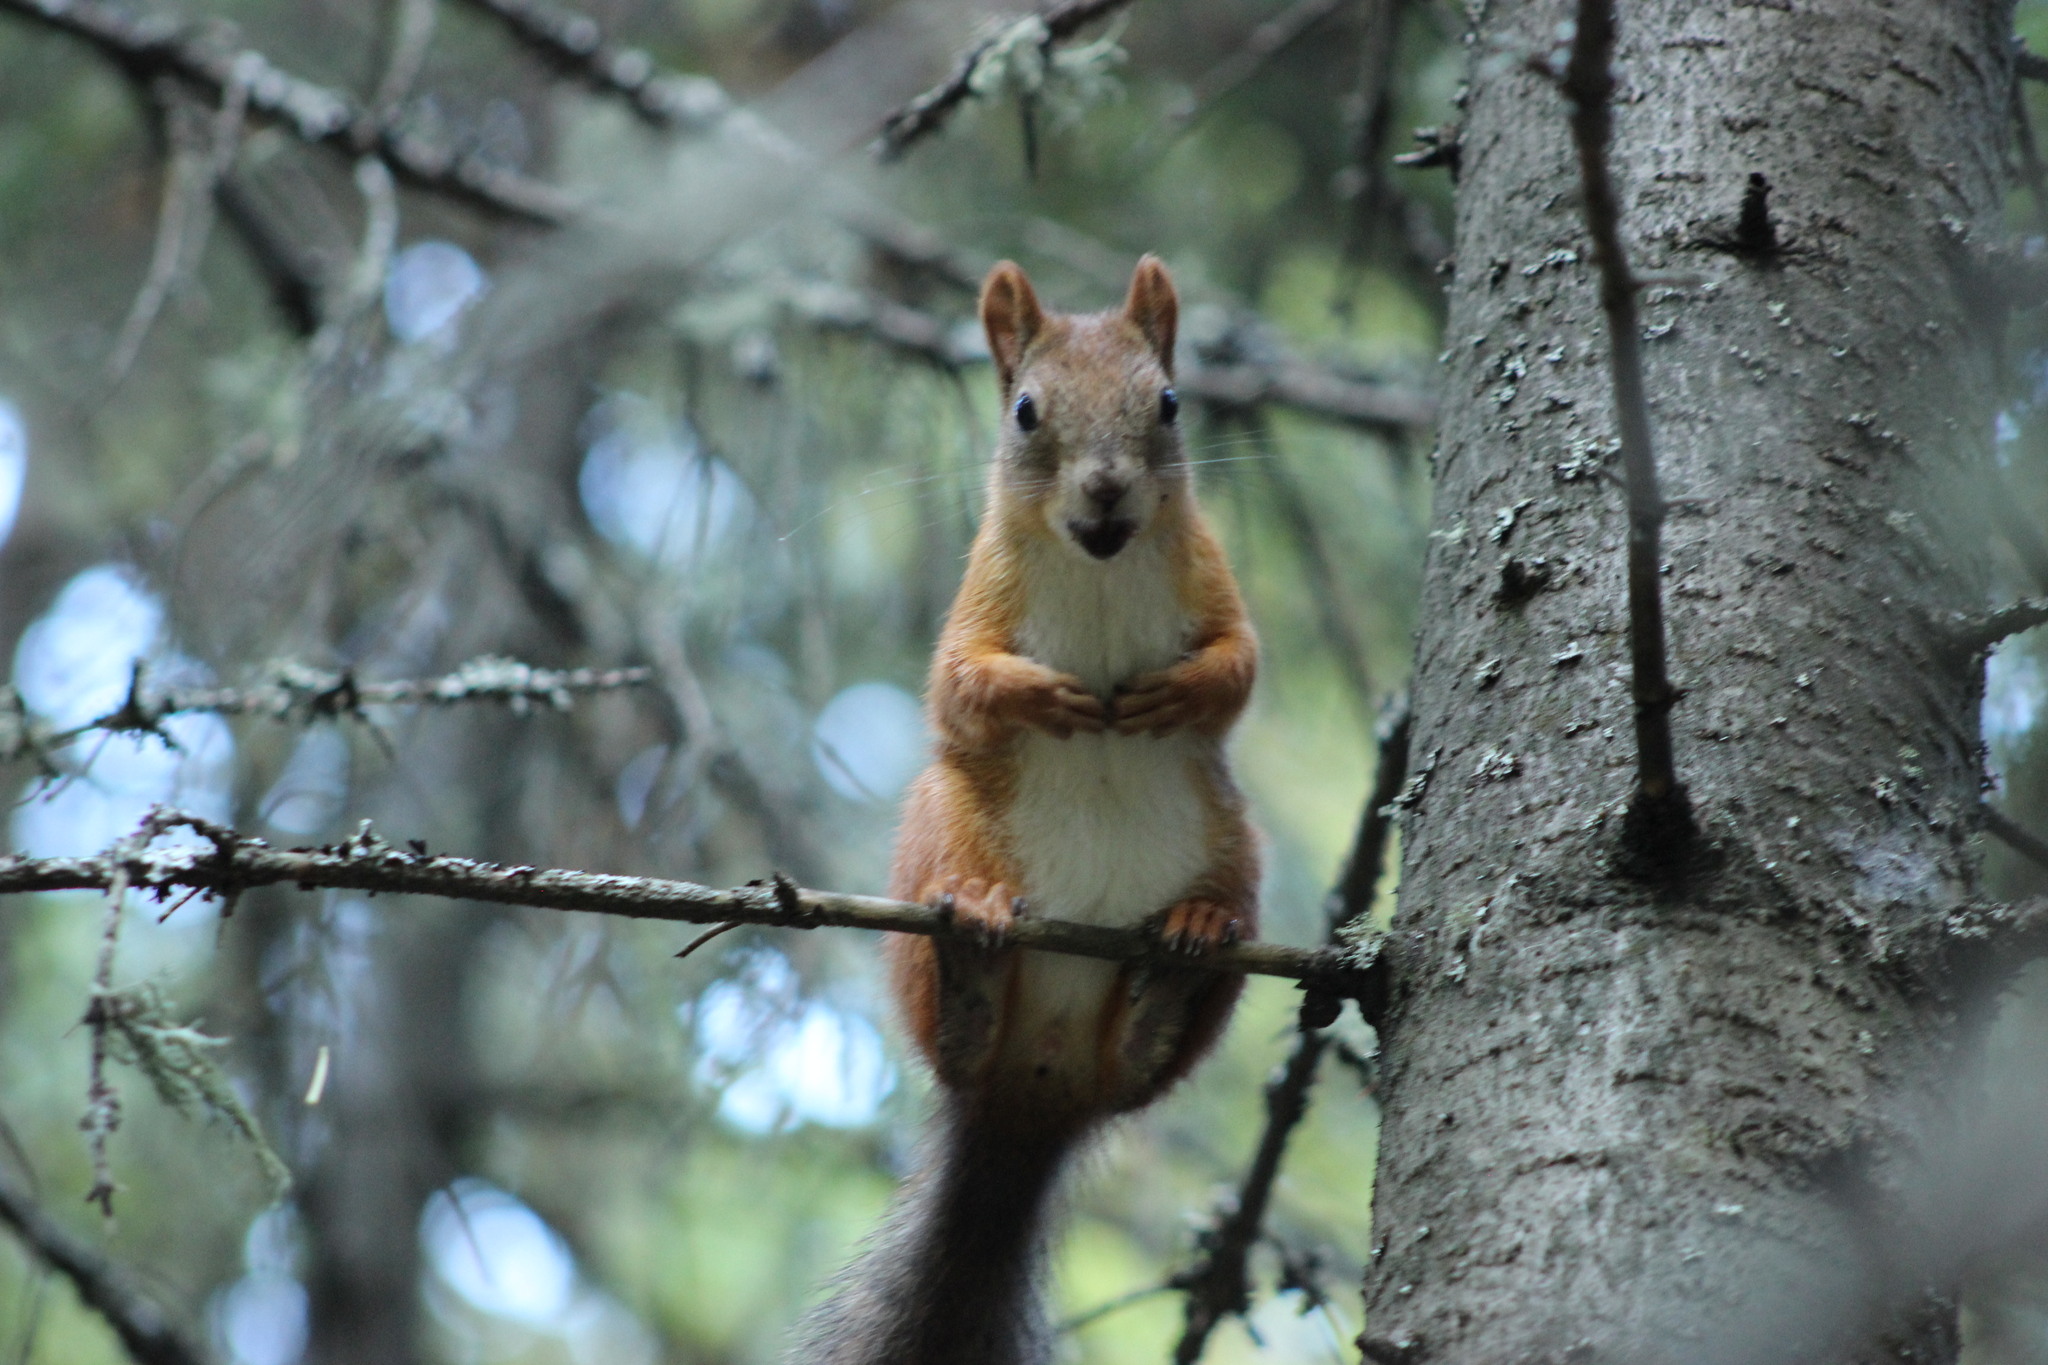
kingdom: Animalia
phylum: Chordata
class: Mammalia
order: Rodentia
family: Sciuridae
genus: Sciurus
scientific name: Sciurus vulgaris
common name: Eurasian red squirrel
